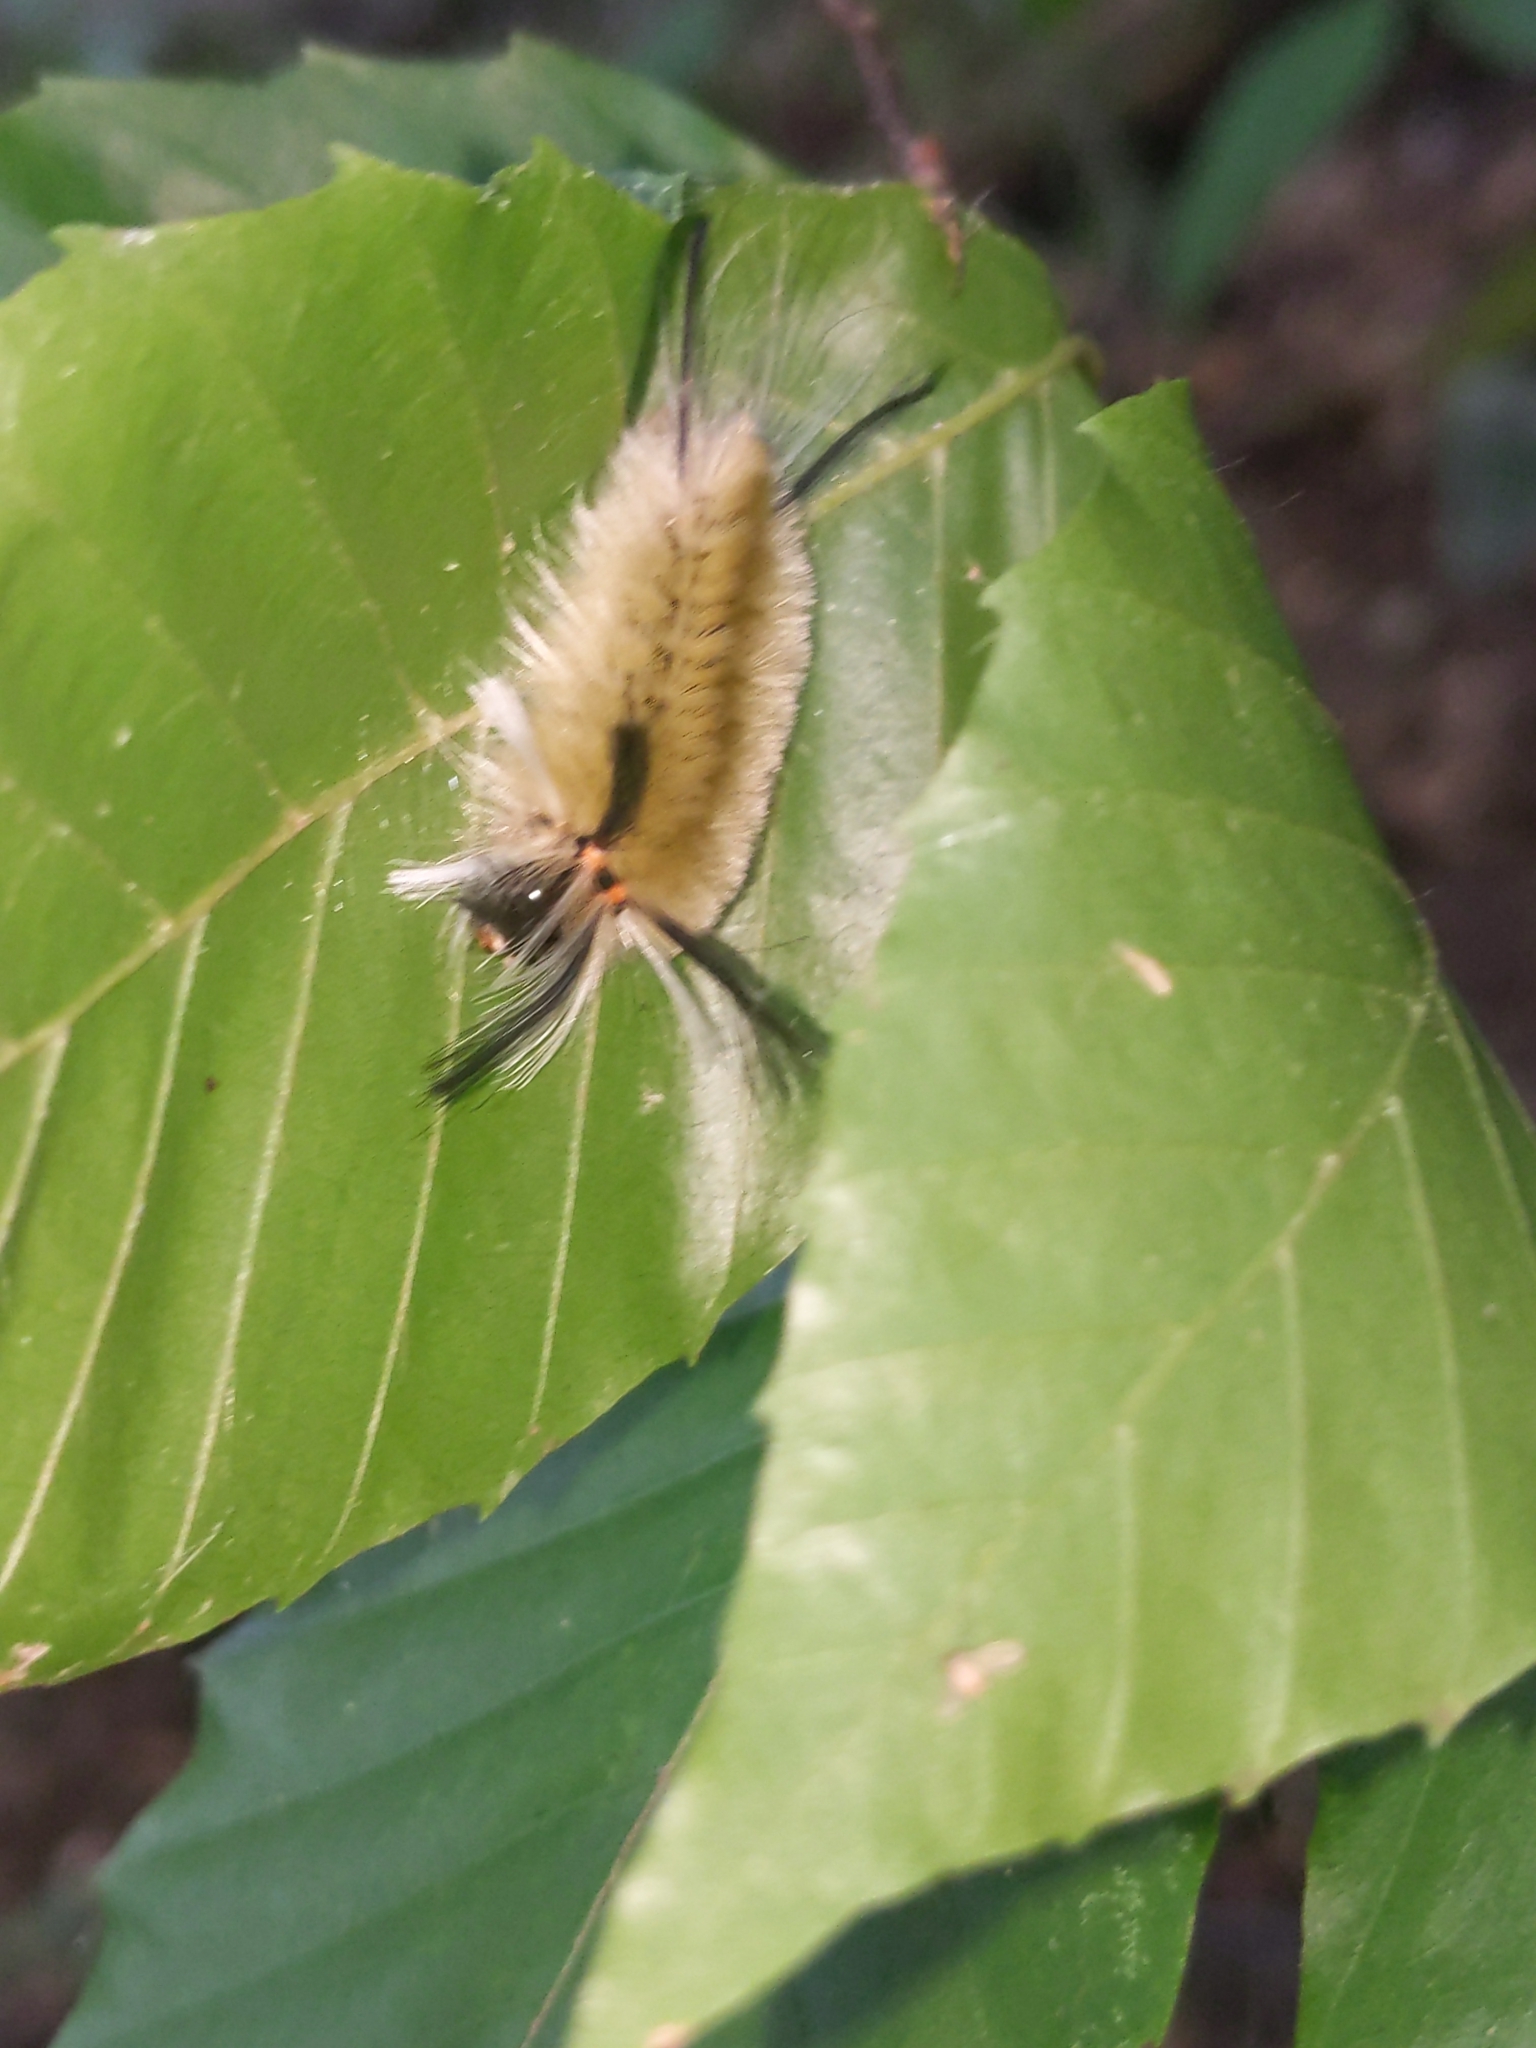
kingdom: Animalia
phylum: Arthropoda
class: Insecta
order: Lepidoptera
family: Erebidae
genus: Halysidota
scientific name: Halysidota tessellaris
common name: Banded tussock moth
